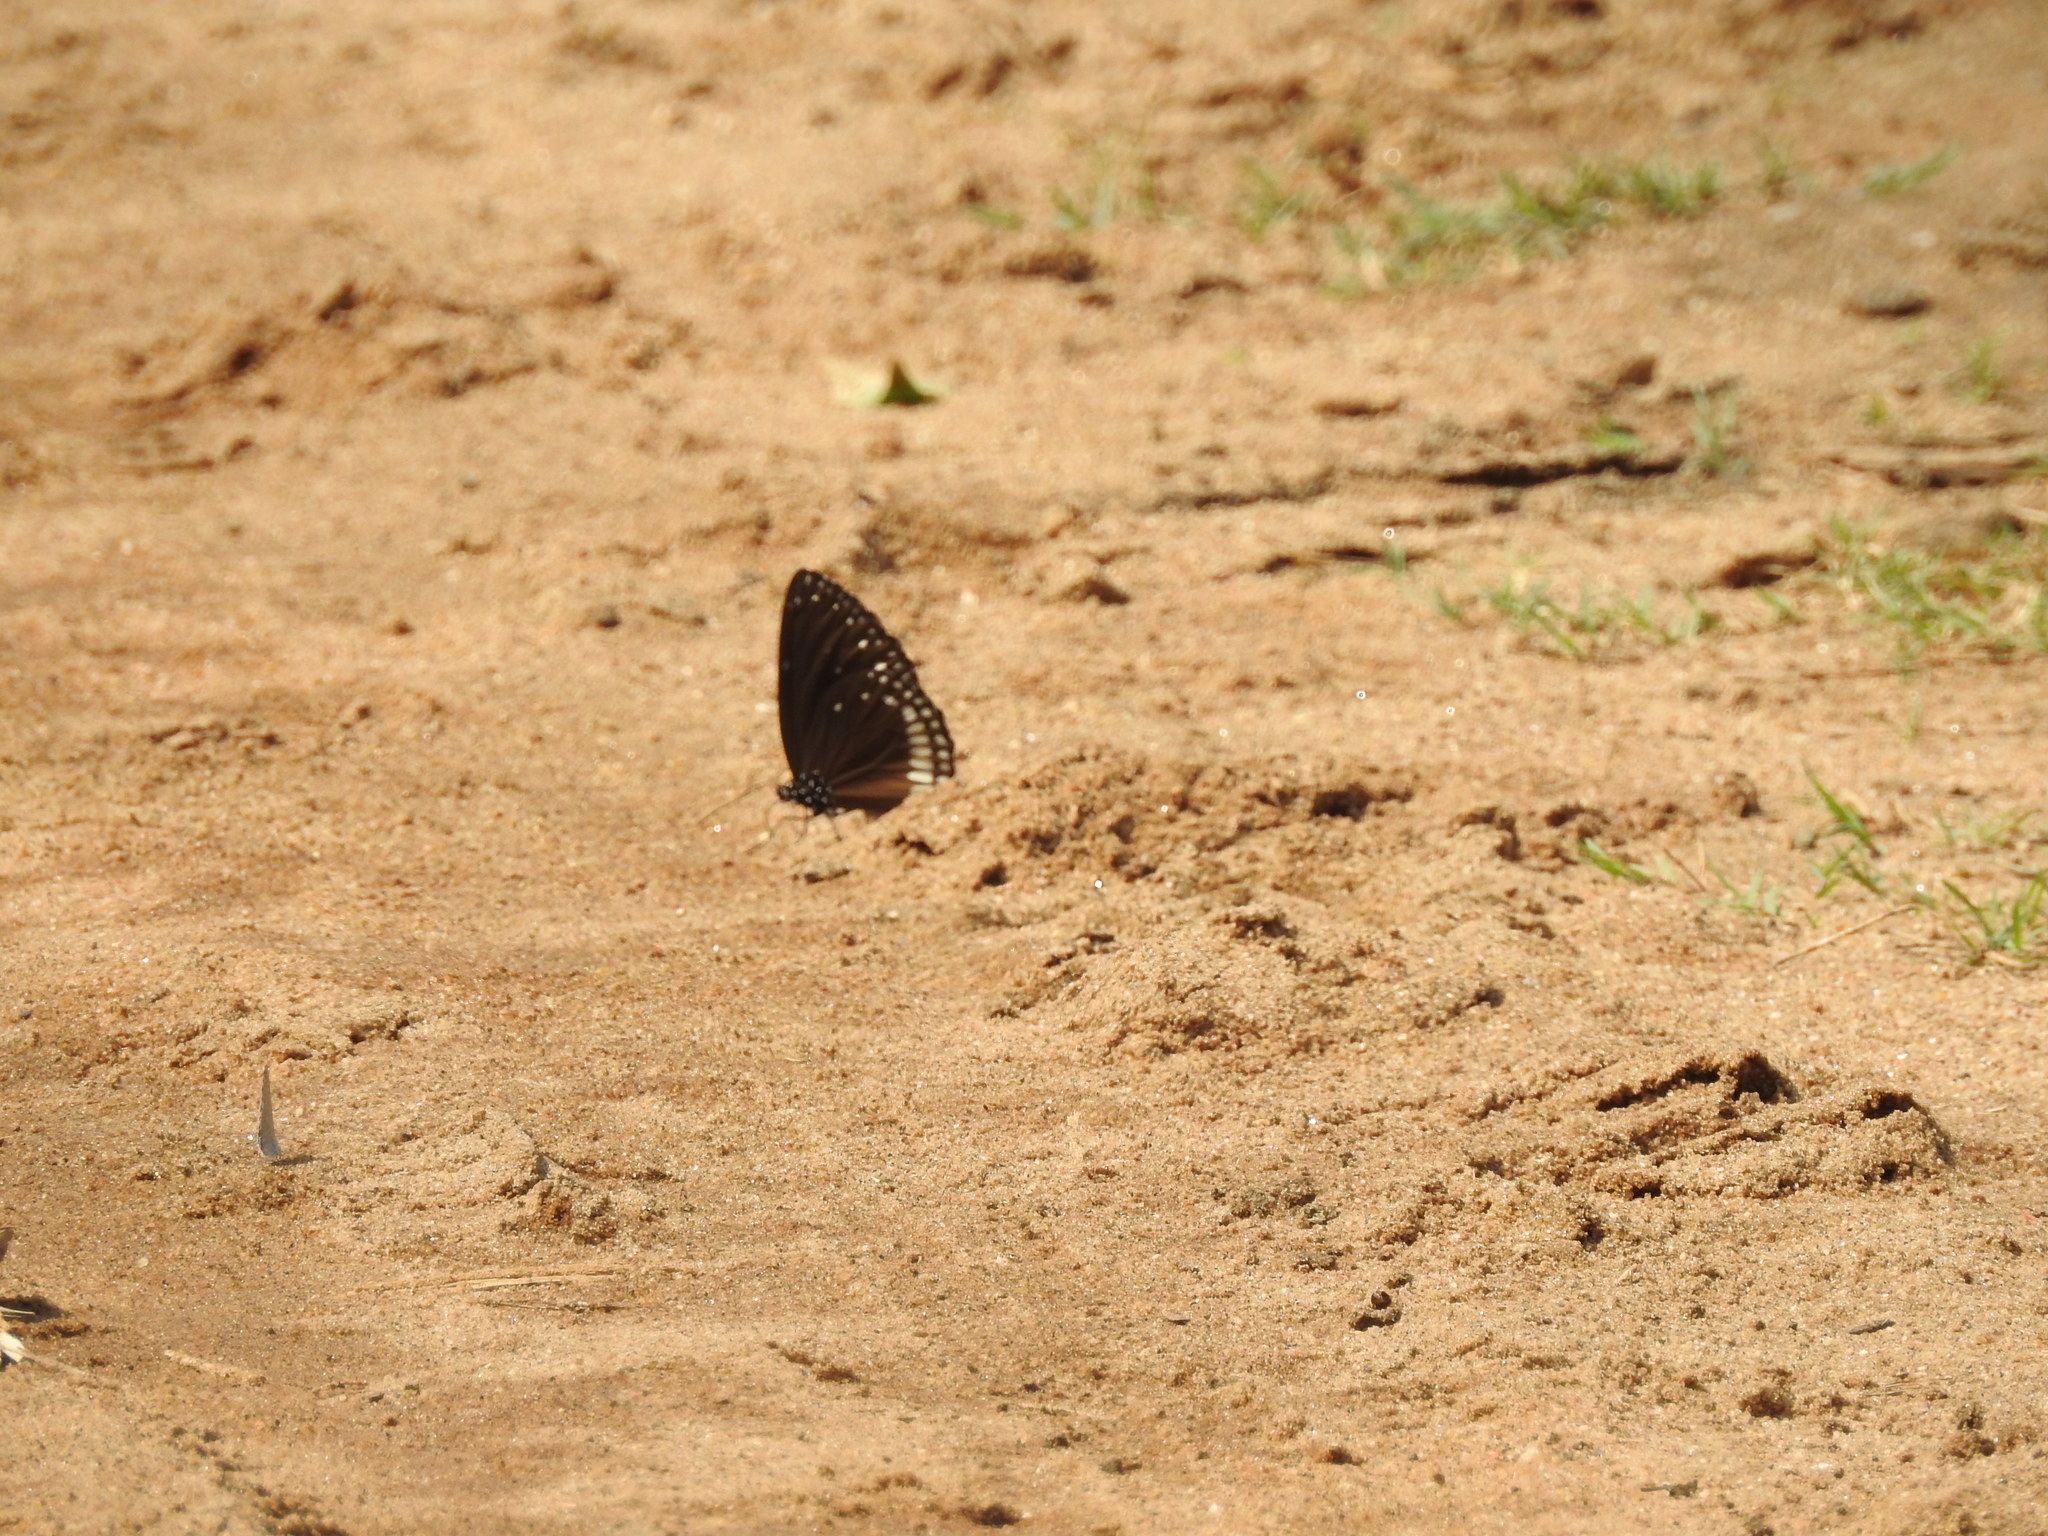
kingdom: Animalia
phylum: Arthropoda
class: Insecta
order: Lepidoptera
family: Nymphalidae
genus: Euploea
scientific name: Euploea klugii
